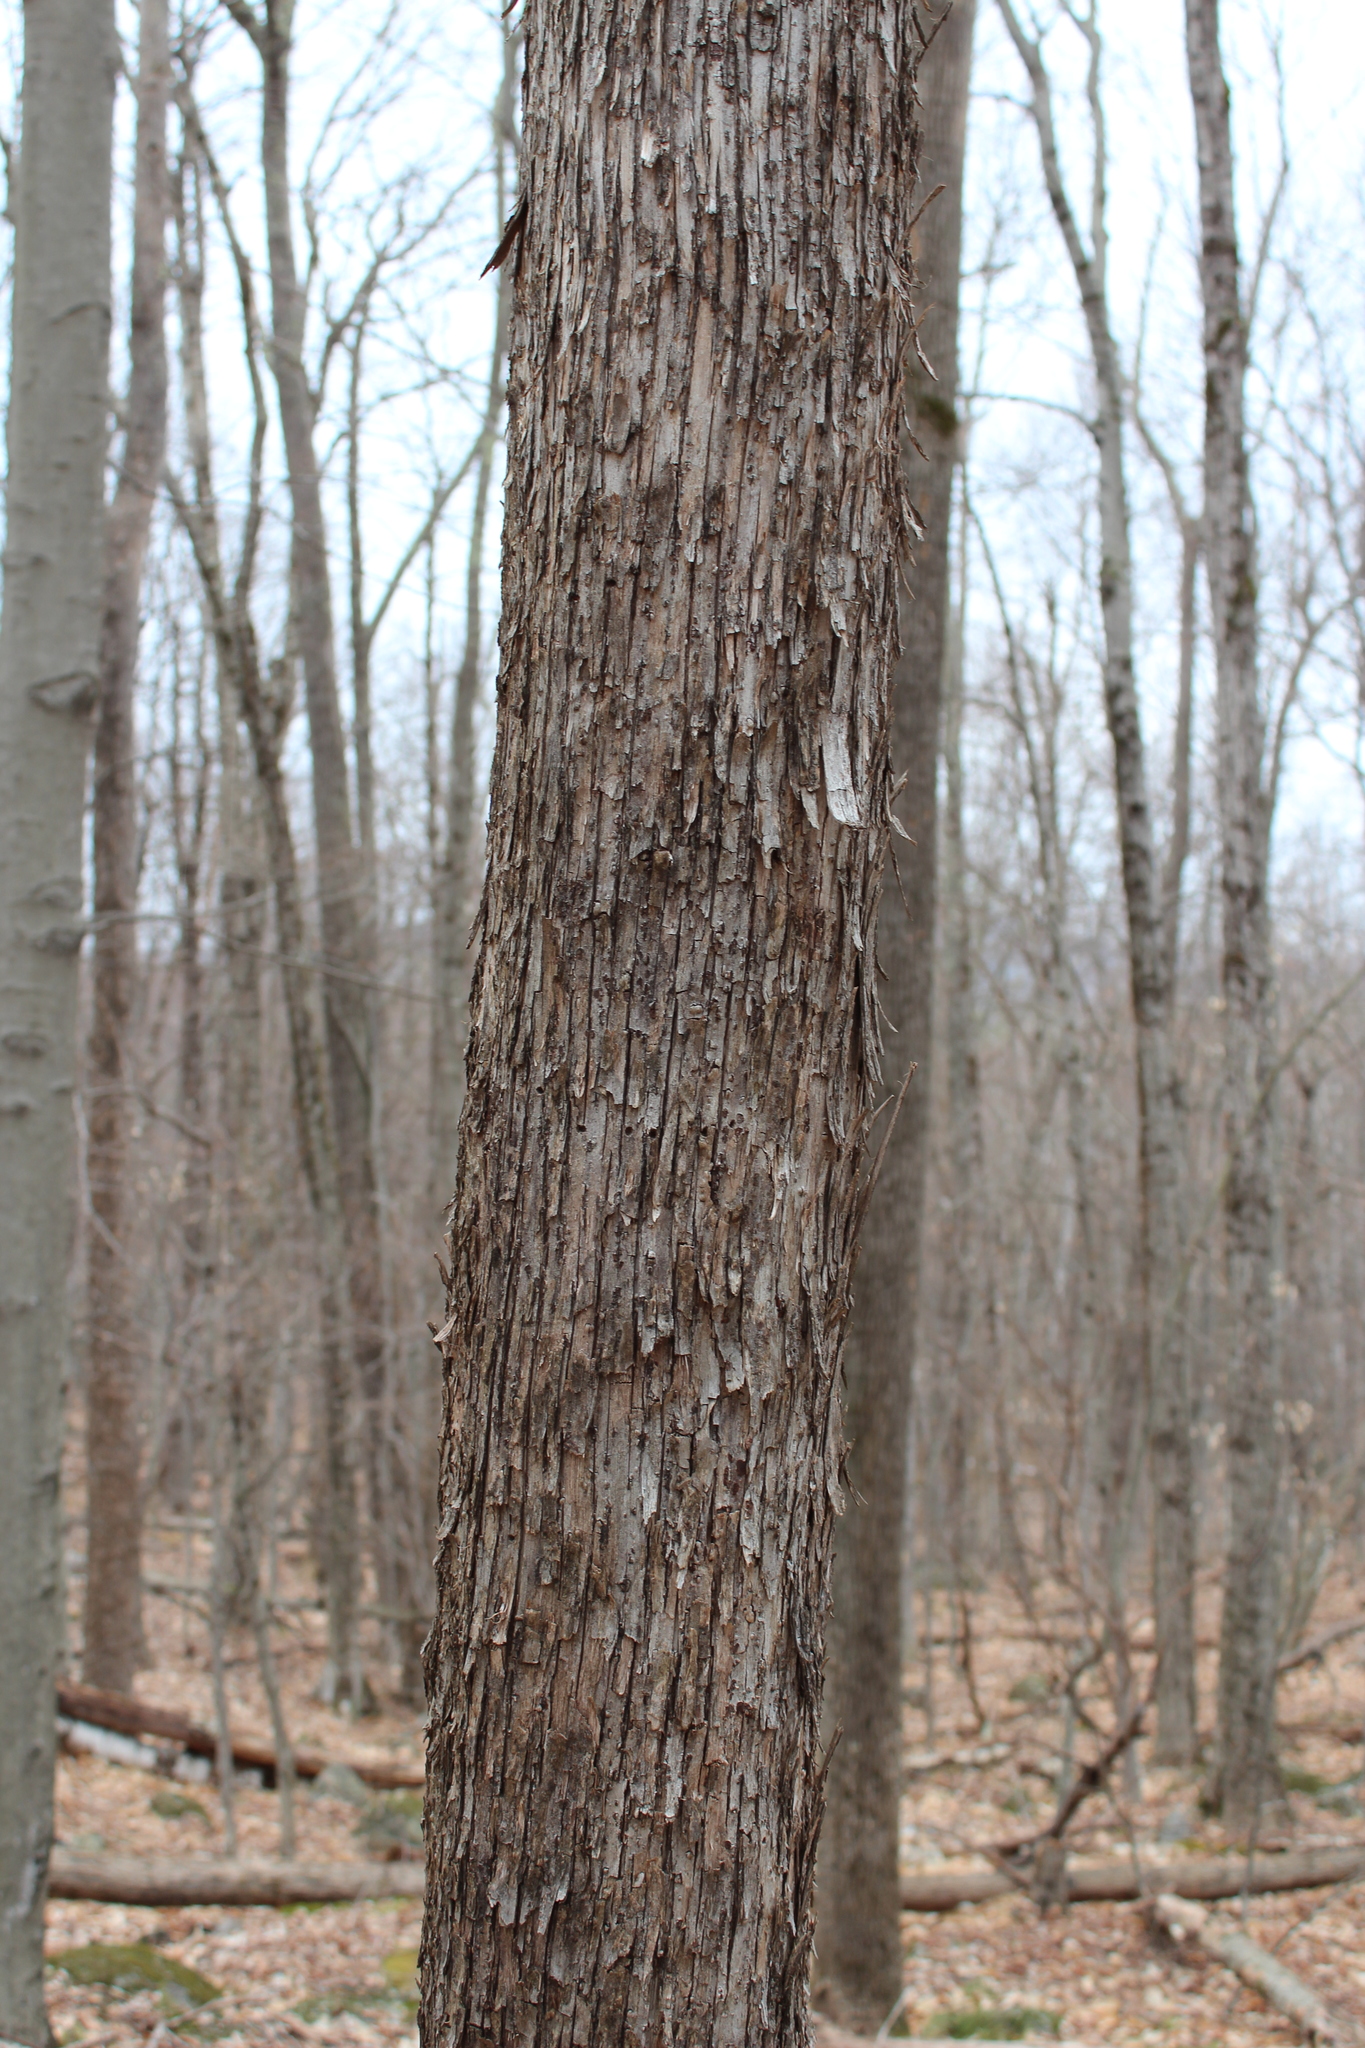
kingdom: Plantae
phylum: Tracheophyta
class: Magnoliopsida
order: Fagales
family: Betulaceae
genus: Ostrya
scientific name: Ostrya virginiana
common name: Ironwood
